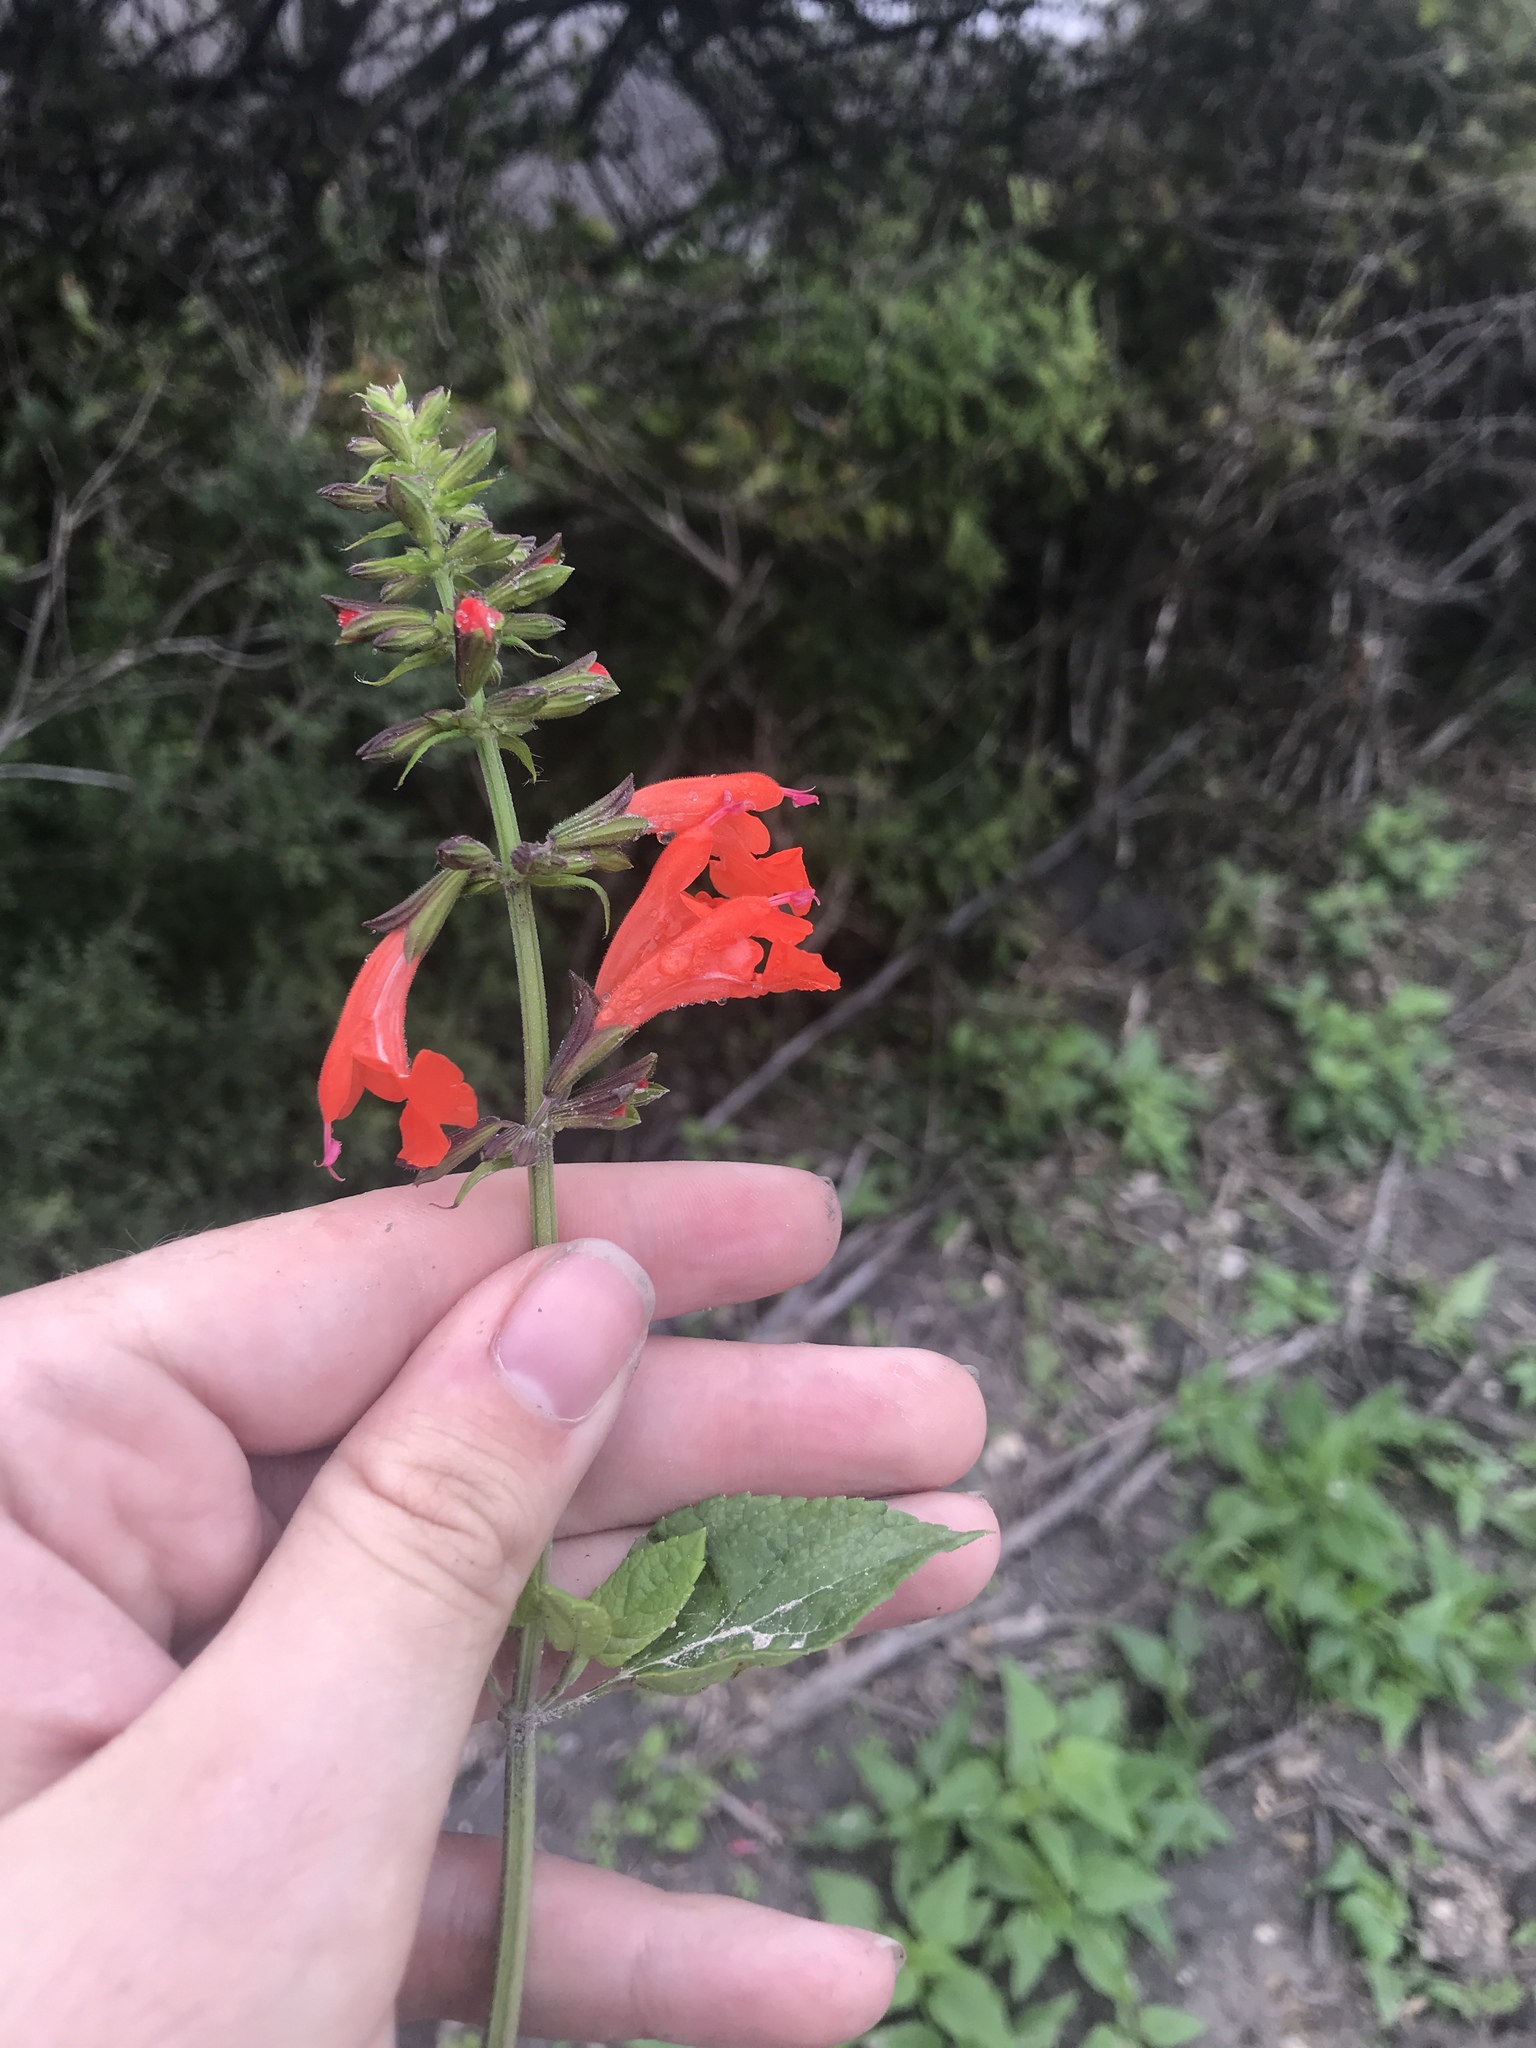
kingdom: Plantae
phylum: Tracheophyta
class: Magnoliopsida
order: Lamiales
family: Lamiaceae
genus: Salvia
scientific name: Salvia coccinea
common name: Blood sage
